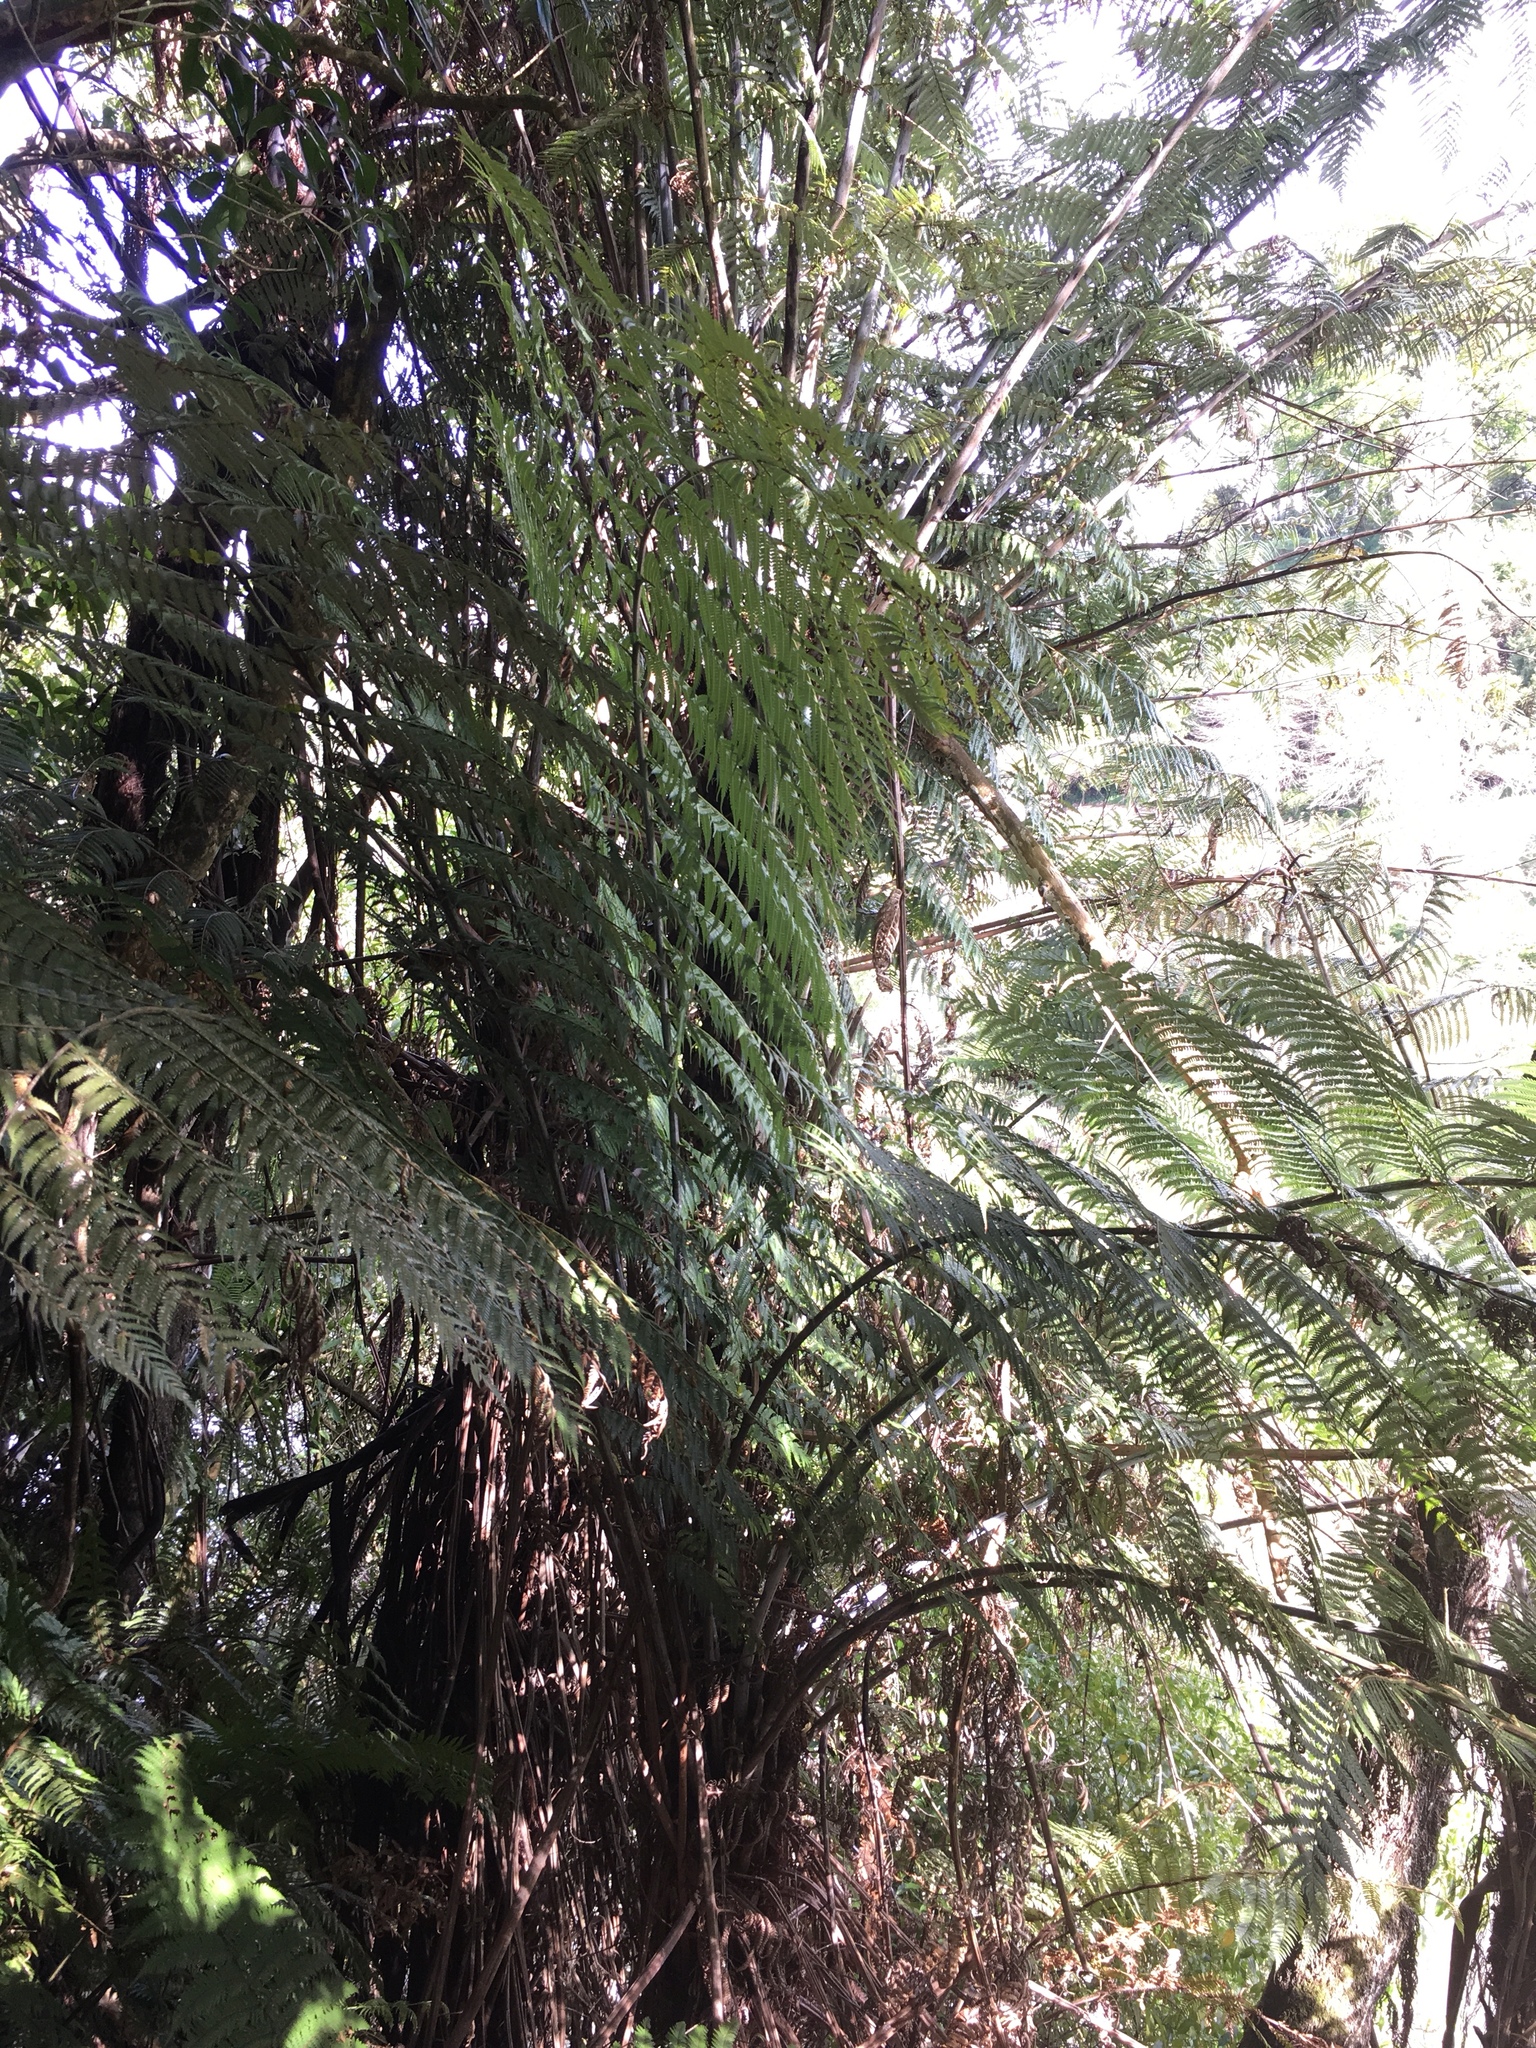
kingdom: Plantae
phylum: Tracheophyta
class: Polypodiopsida
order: Cyatheales
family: Cyatheaceae
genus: Alsophila
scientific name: Alsophila dealbata
